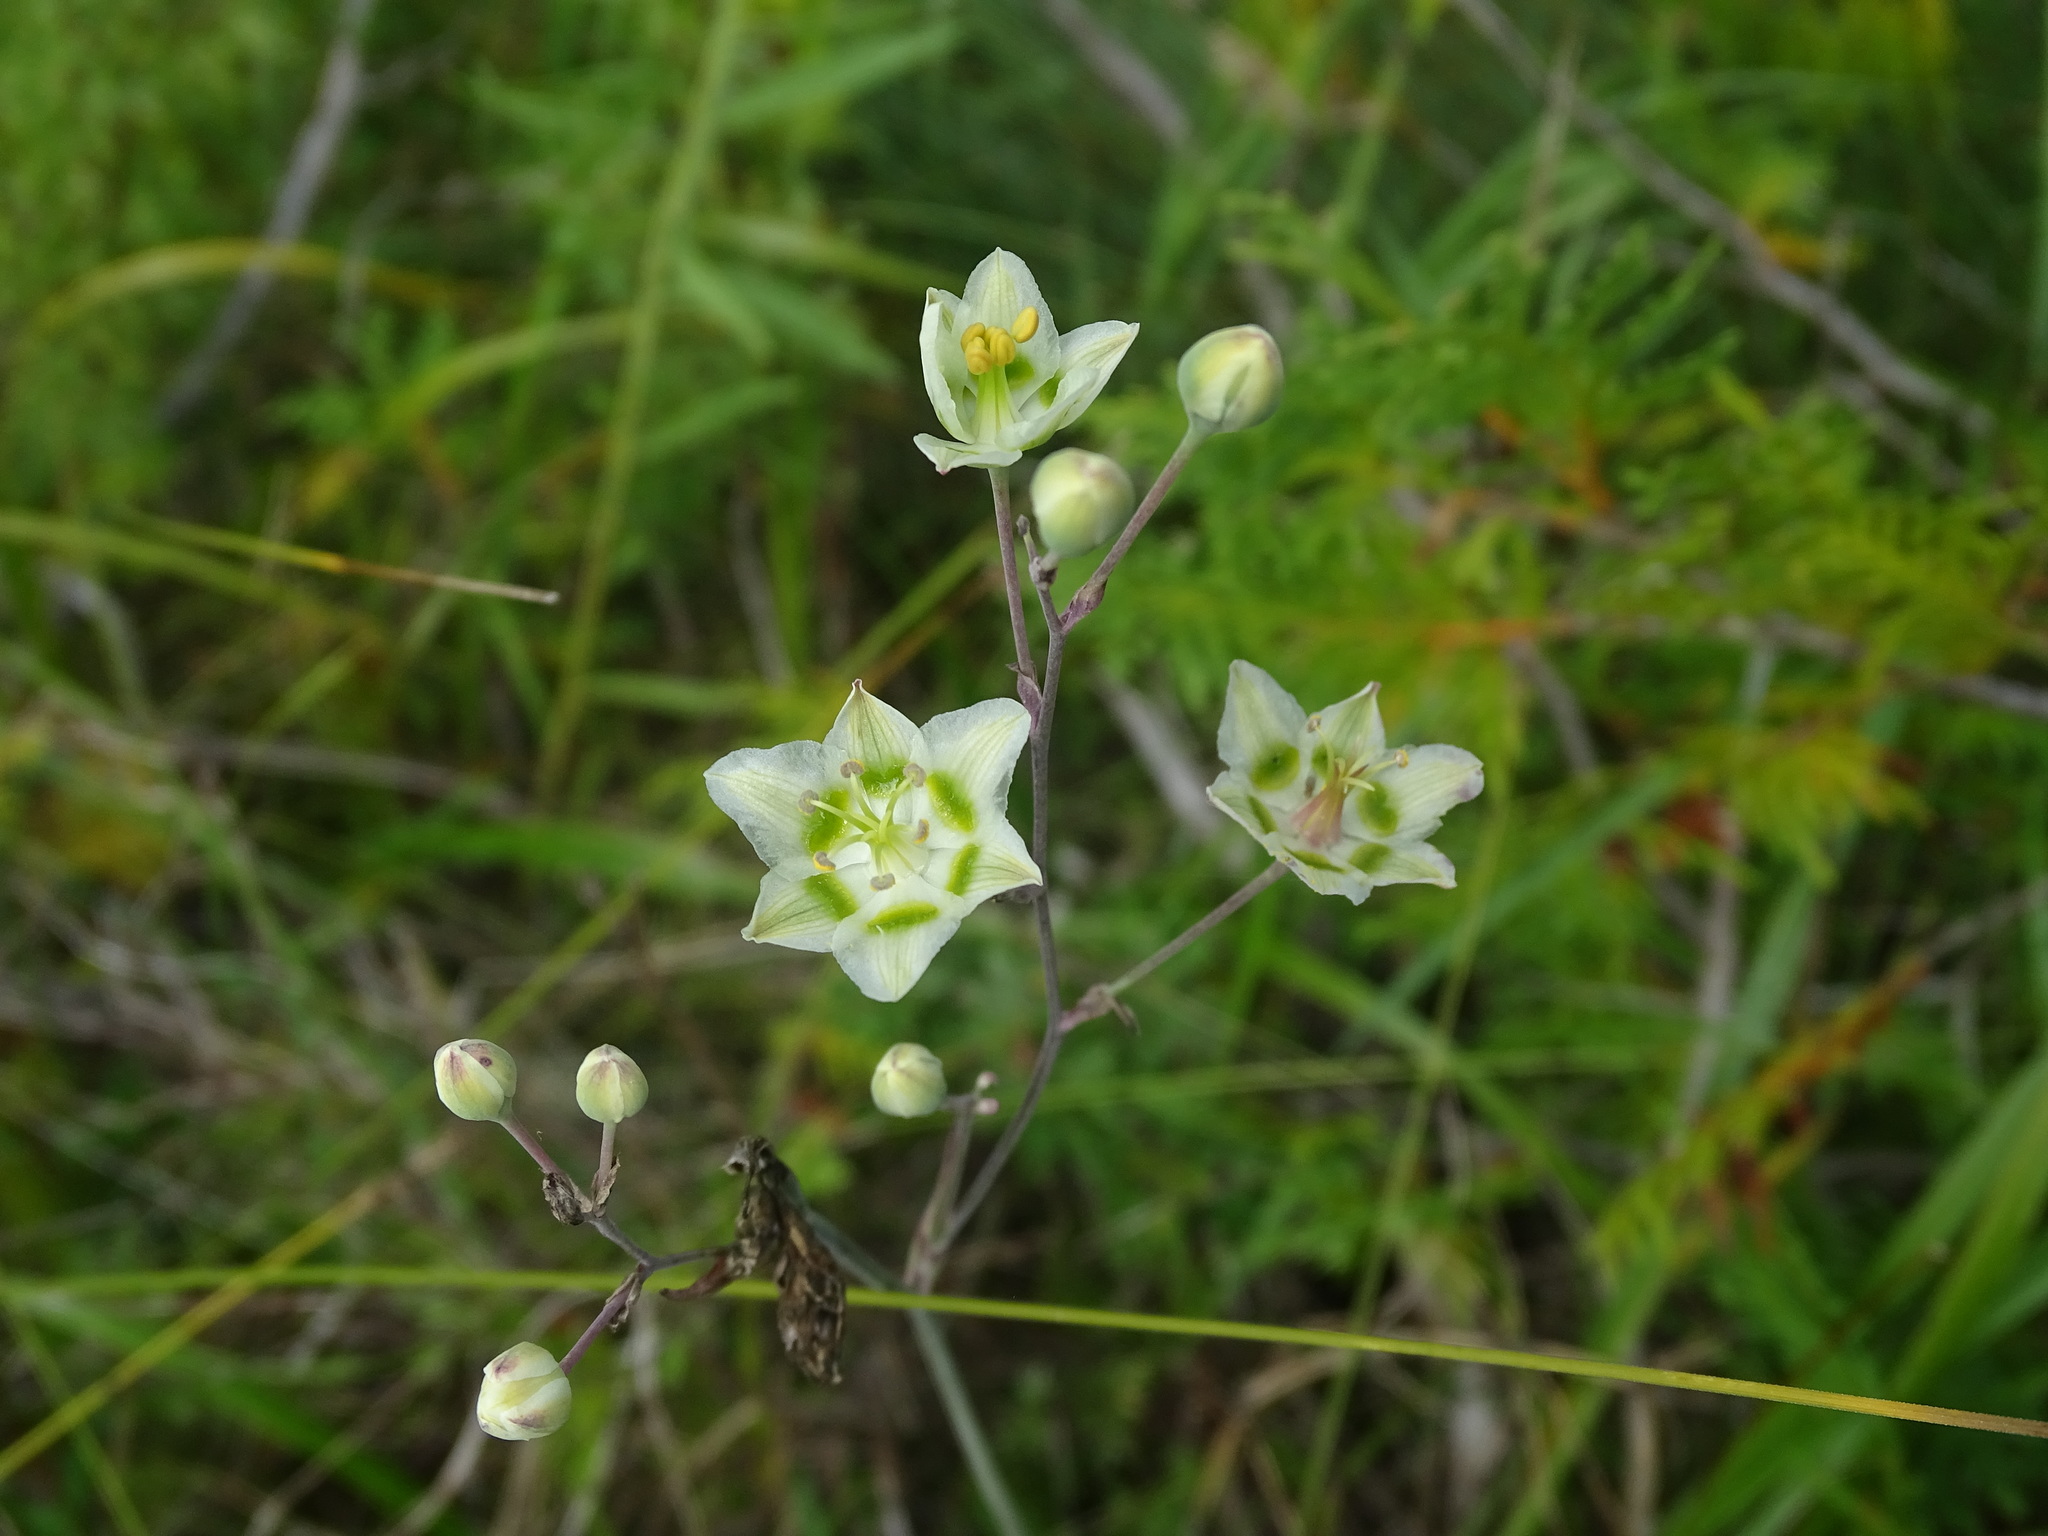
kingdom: Plantae
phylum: Tracheophyta
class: Liliopsida
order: Liliales
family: Melanthiaceae
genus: Anticlea
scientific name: Anticlea elegans
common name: Mountain death camas
